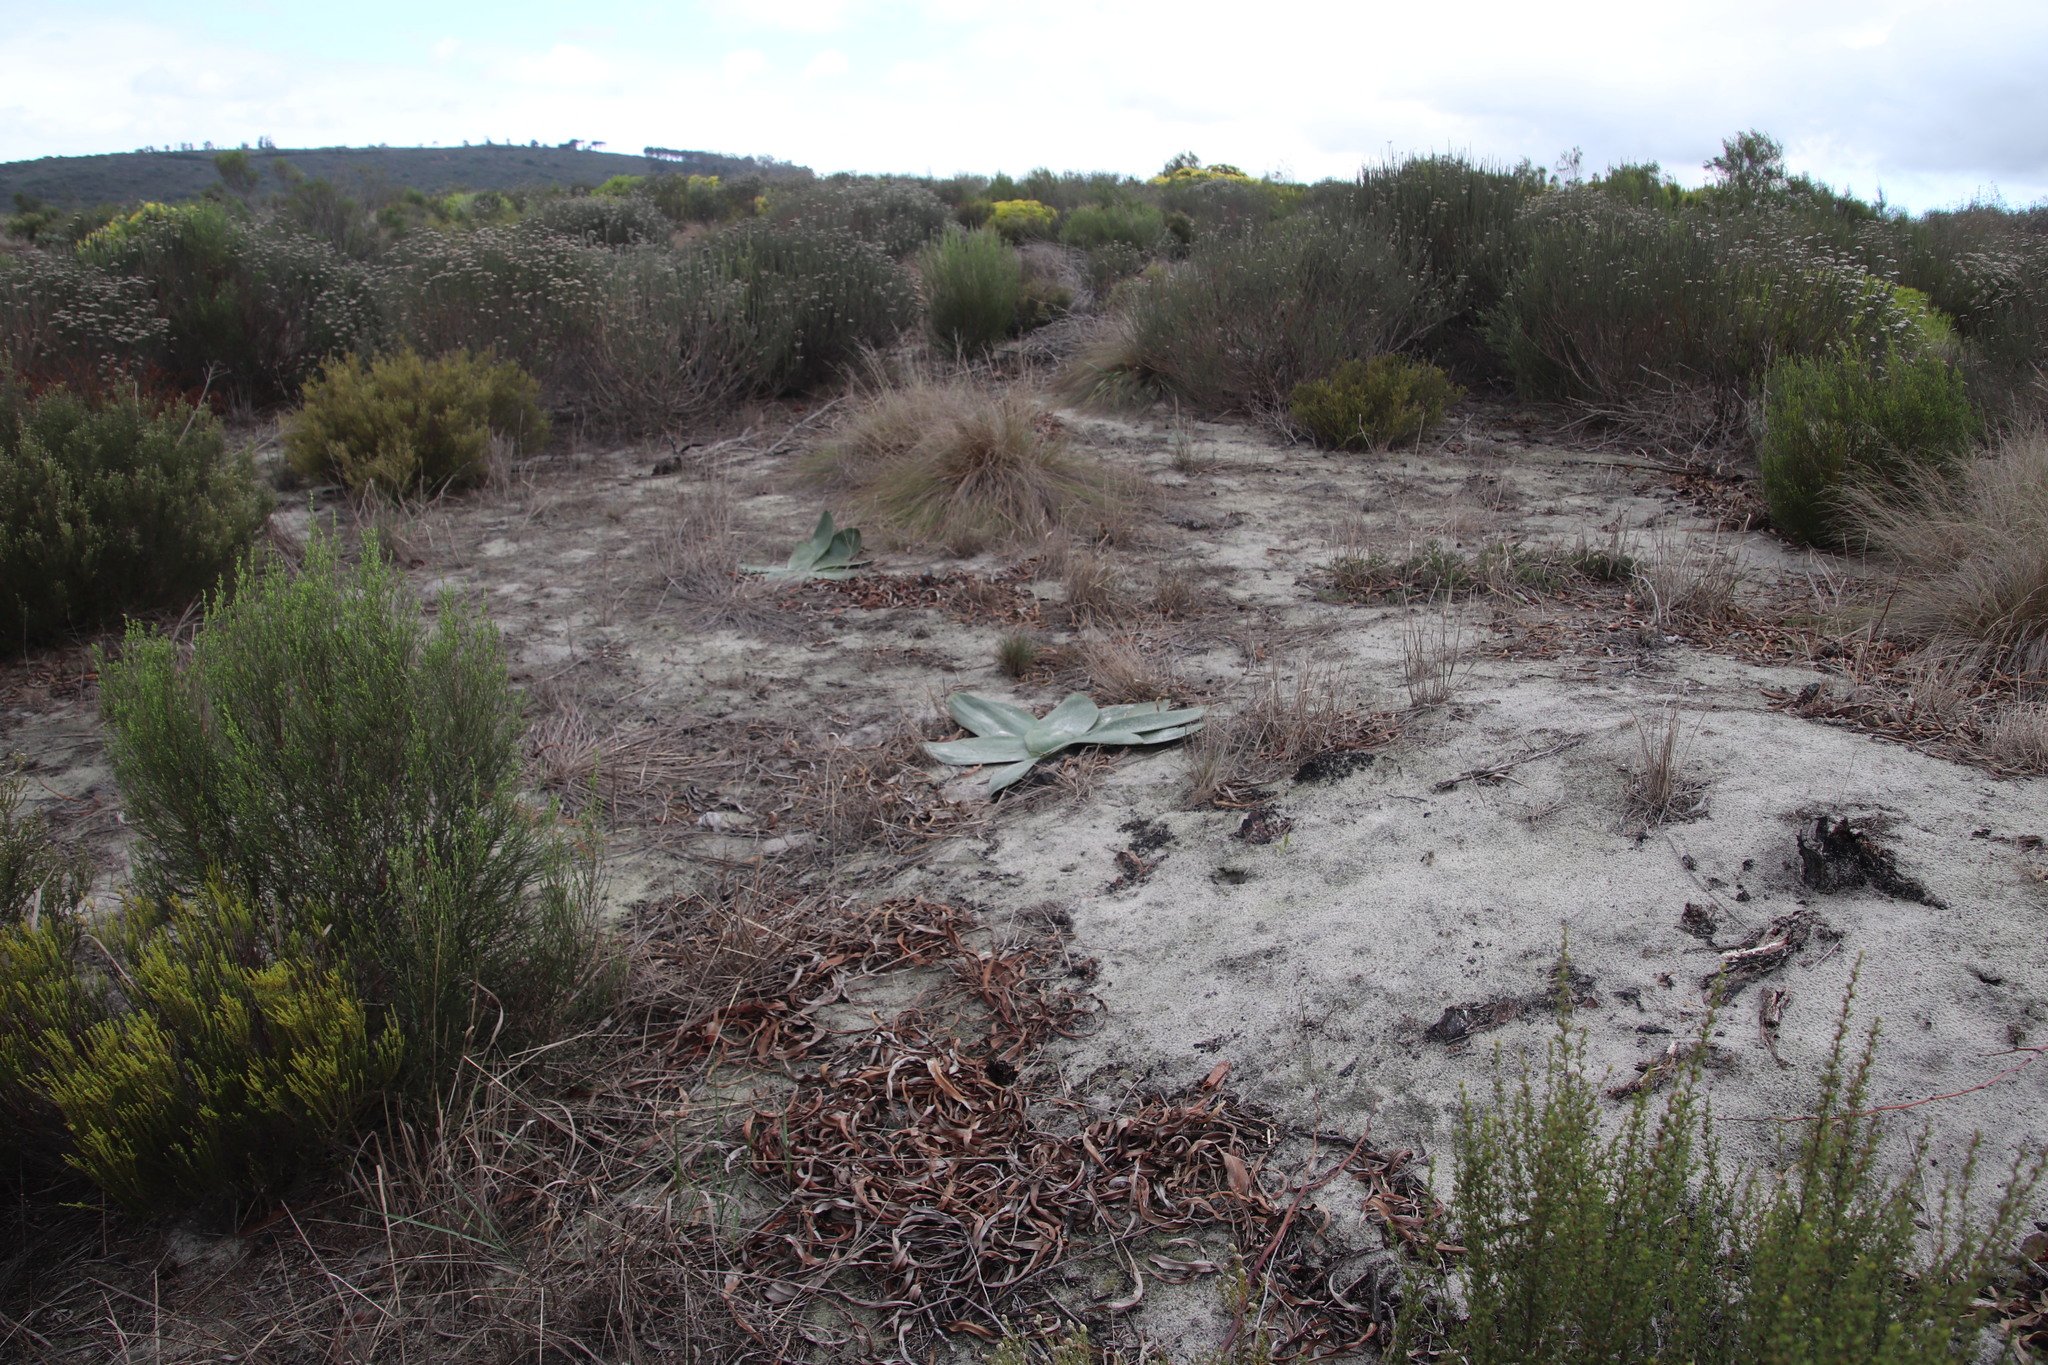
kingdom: Plantae
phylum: Tracheophyta
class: Liliopsida
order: Asparagales
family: Amaryllidaceae
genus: Brunsvigia
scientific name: Brunsvigia orientalis
